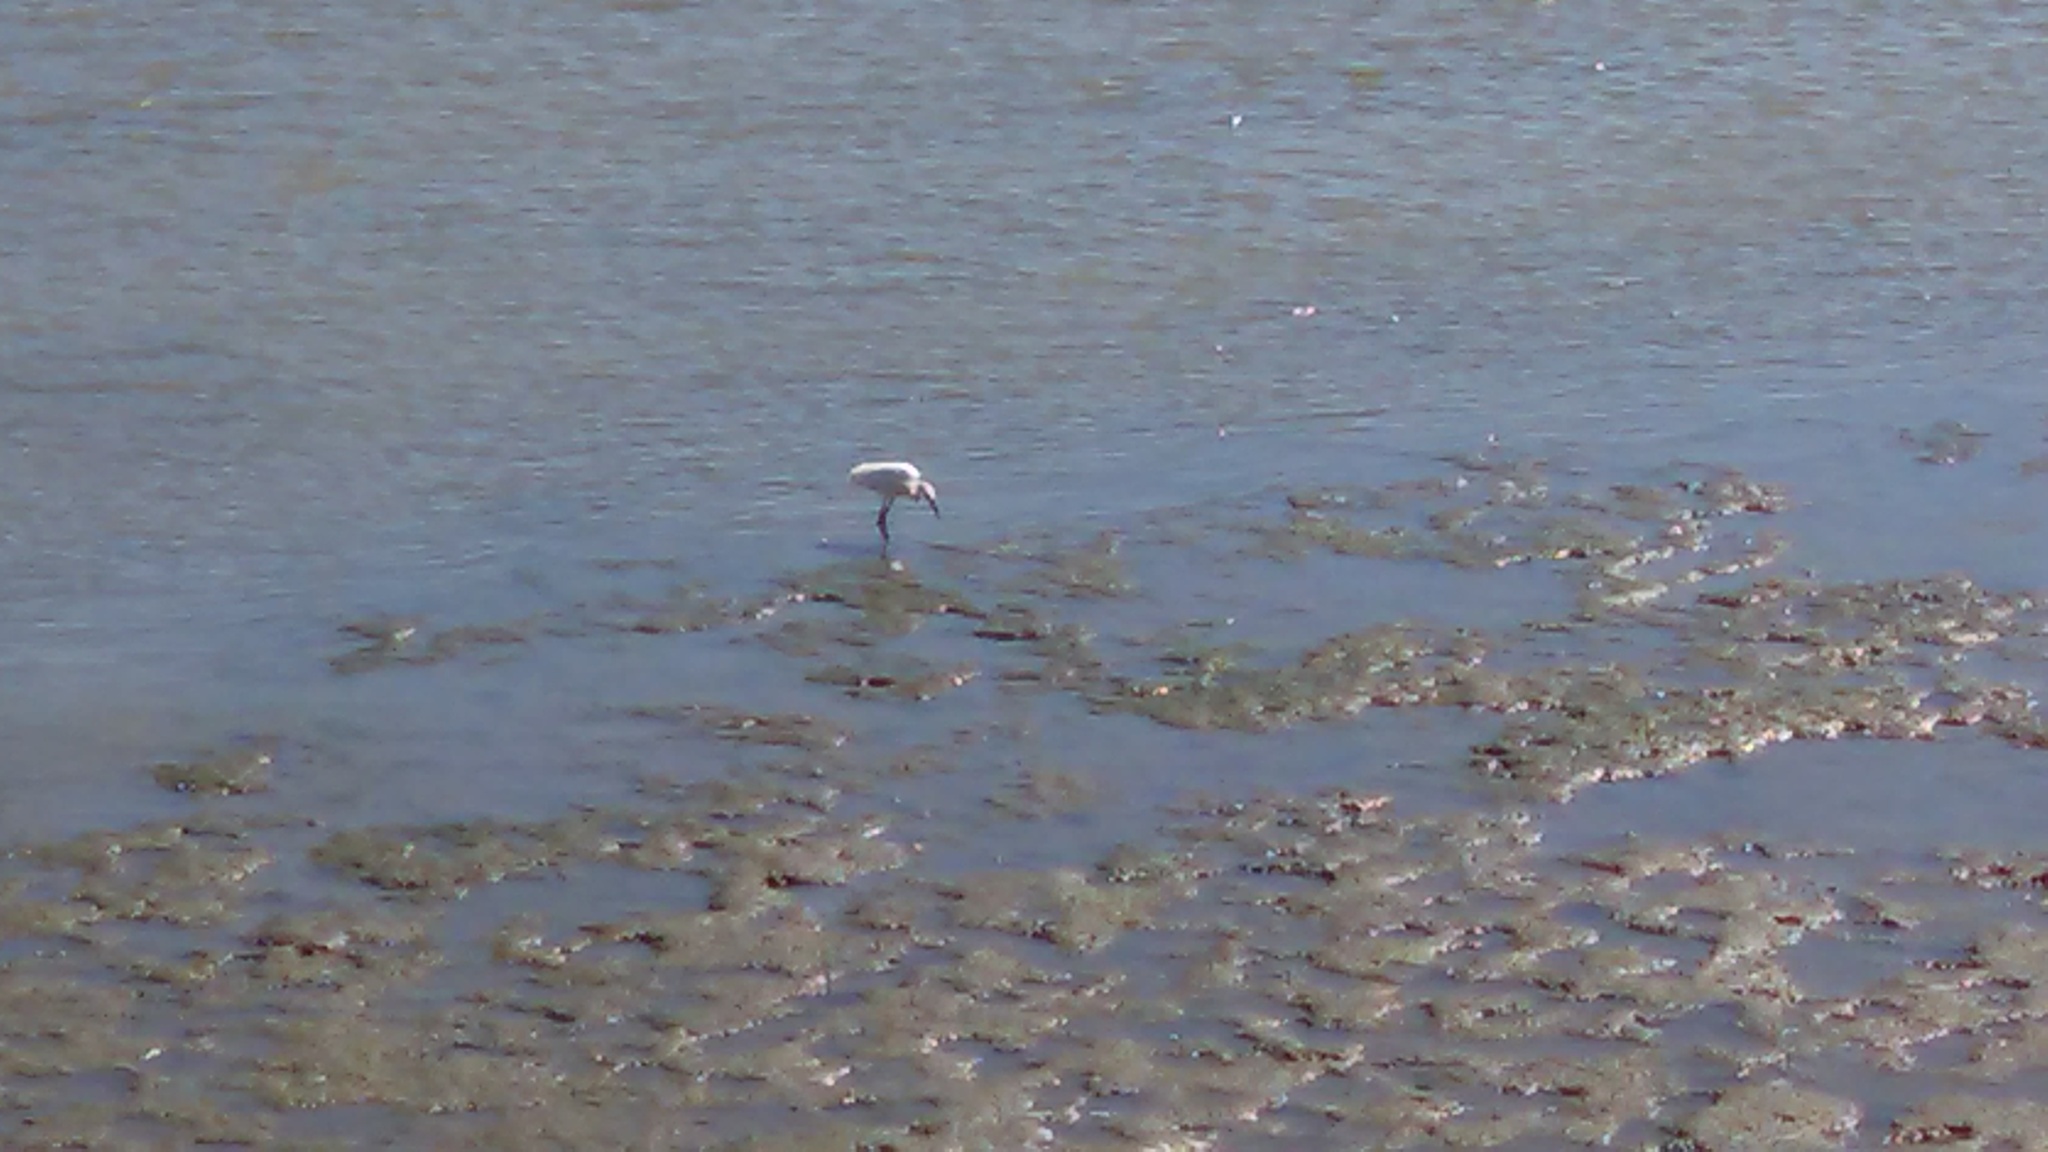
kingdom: Animalia
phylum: Chordata
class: Aves
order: Pelecaniformes
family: Ardeidae
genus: Egretta
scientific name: Egretta thula
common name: Snowy egret
